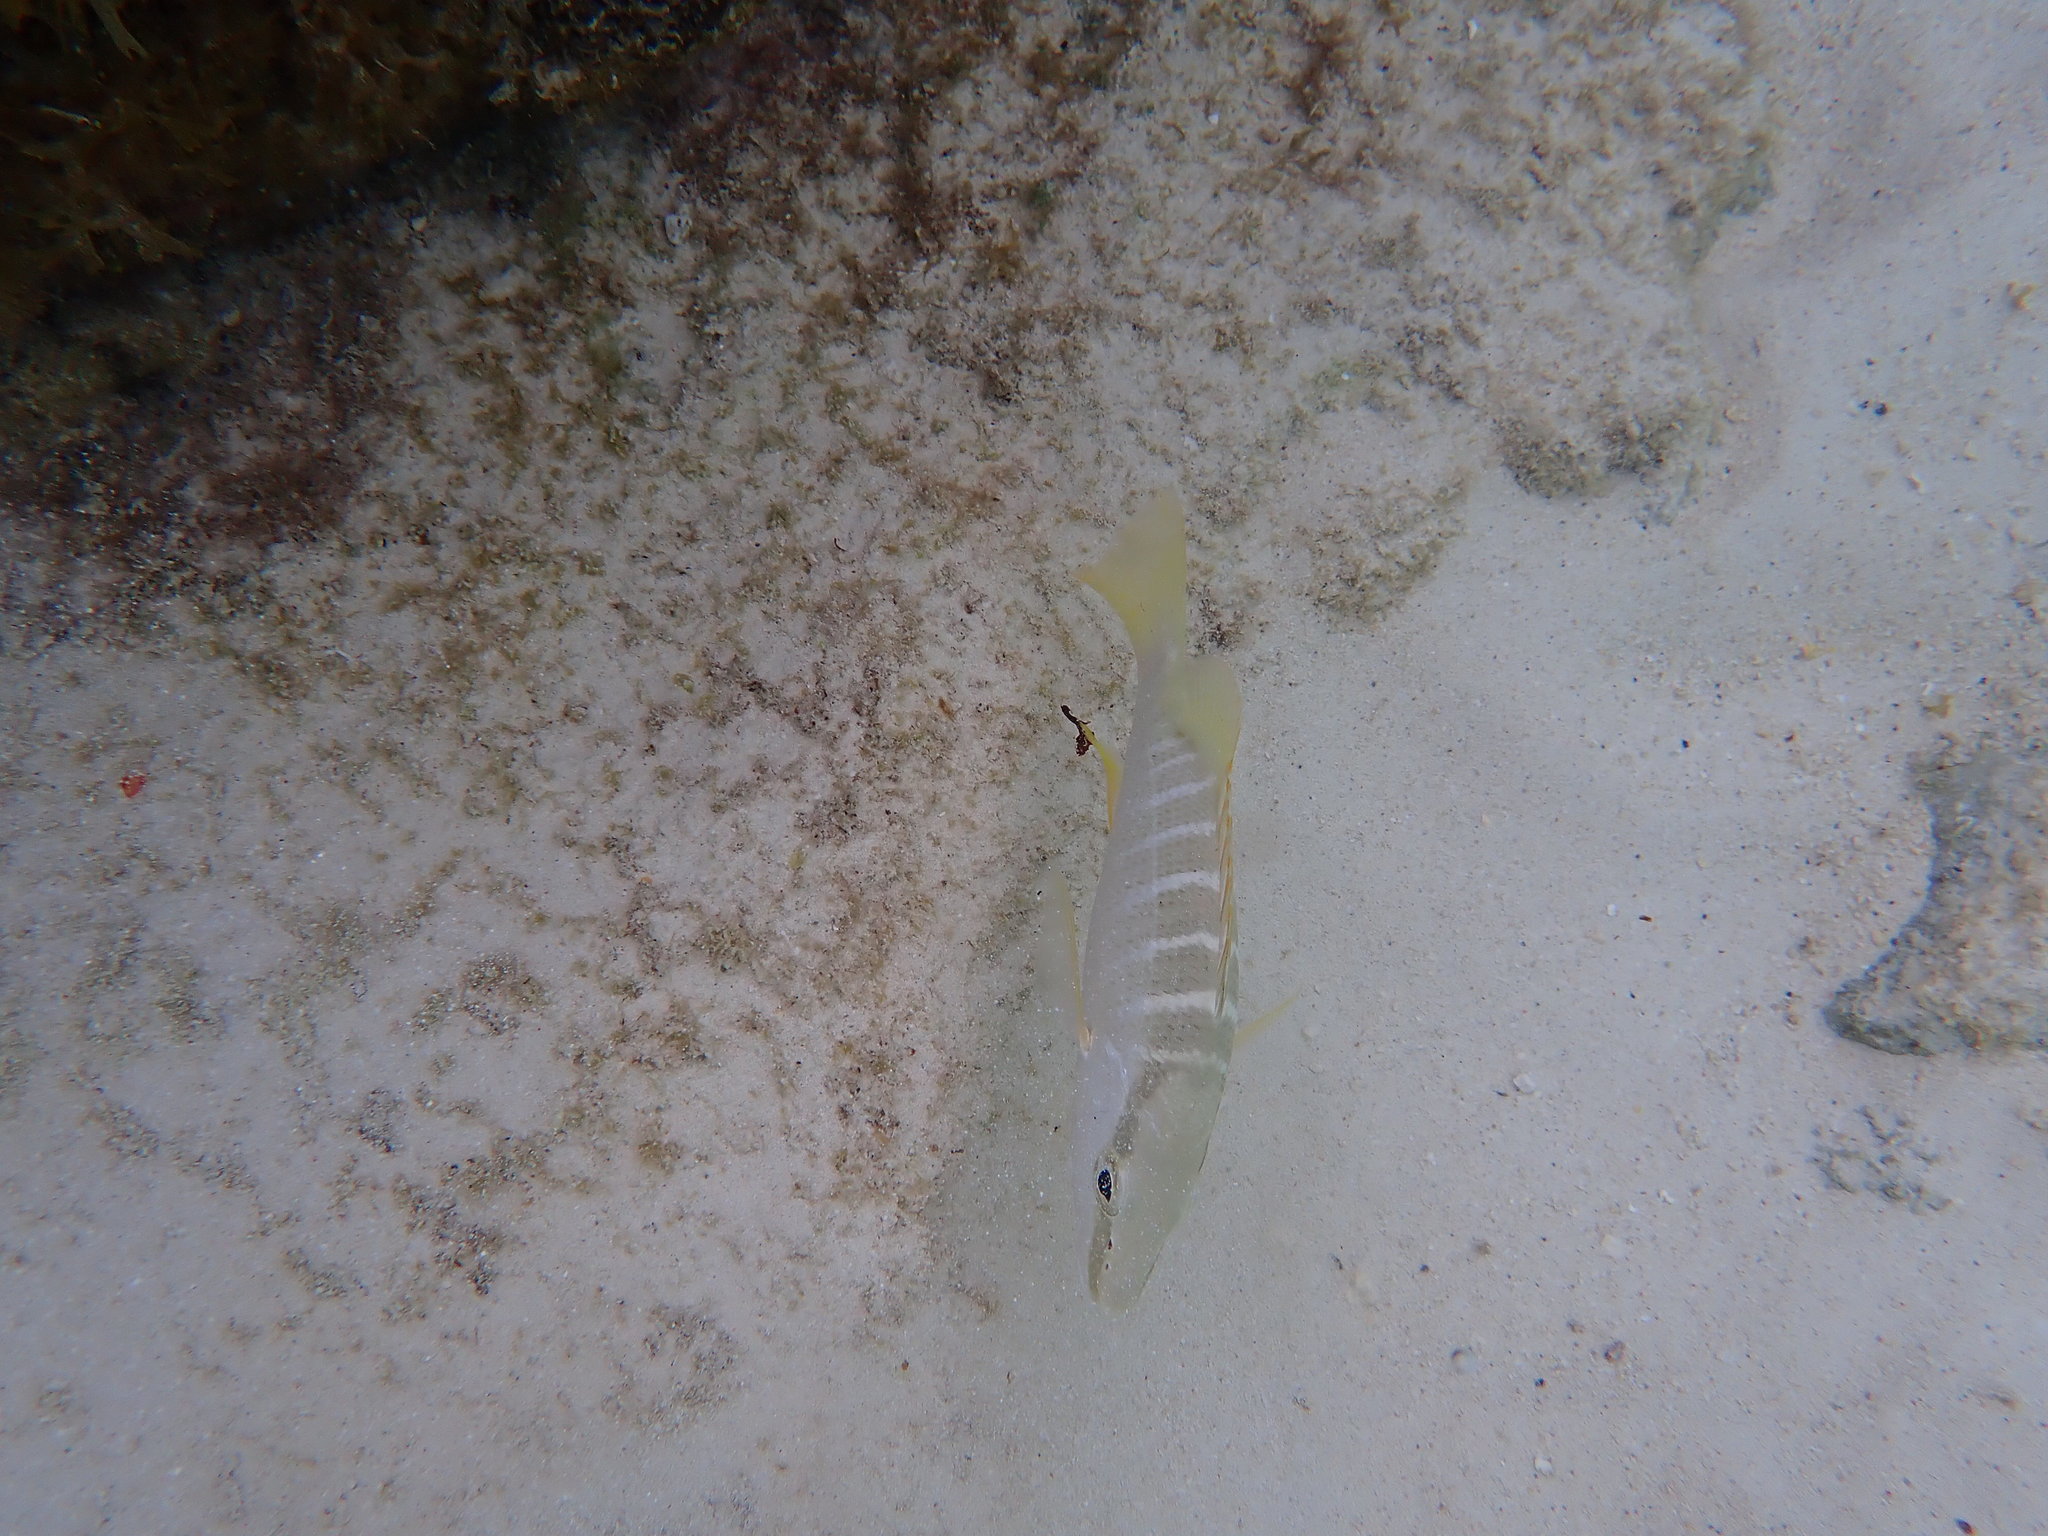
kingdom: Animalia
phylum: Chordata
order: Perciformes
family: Lutjanidae
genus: Lutjanus
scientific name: Lutjanus apodus
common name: Schoolmaster
